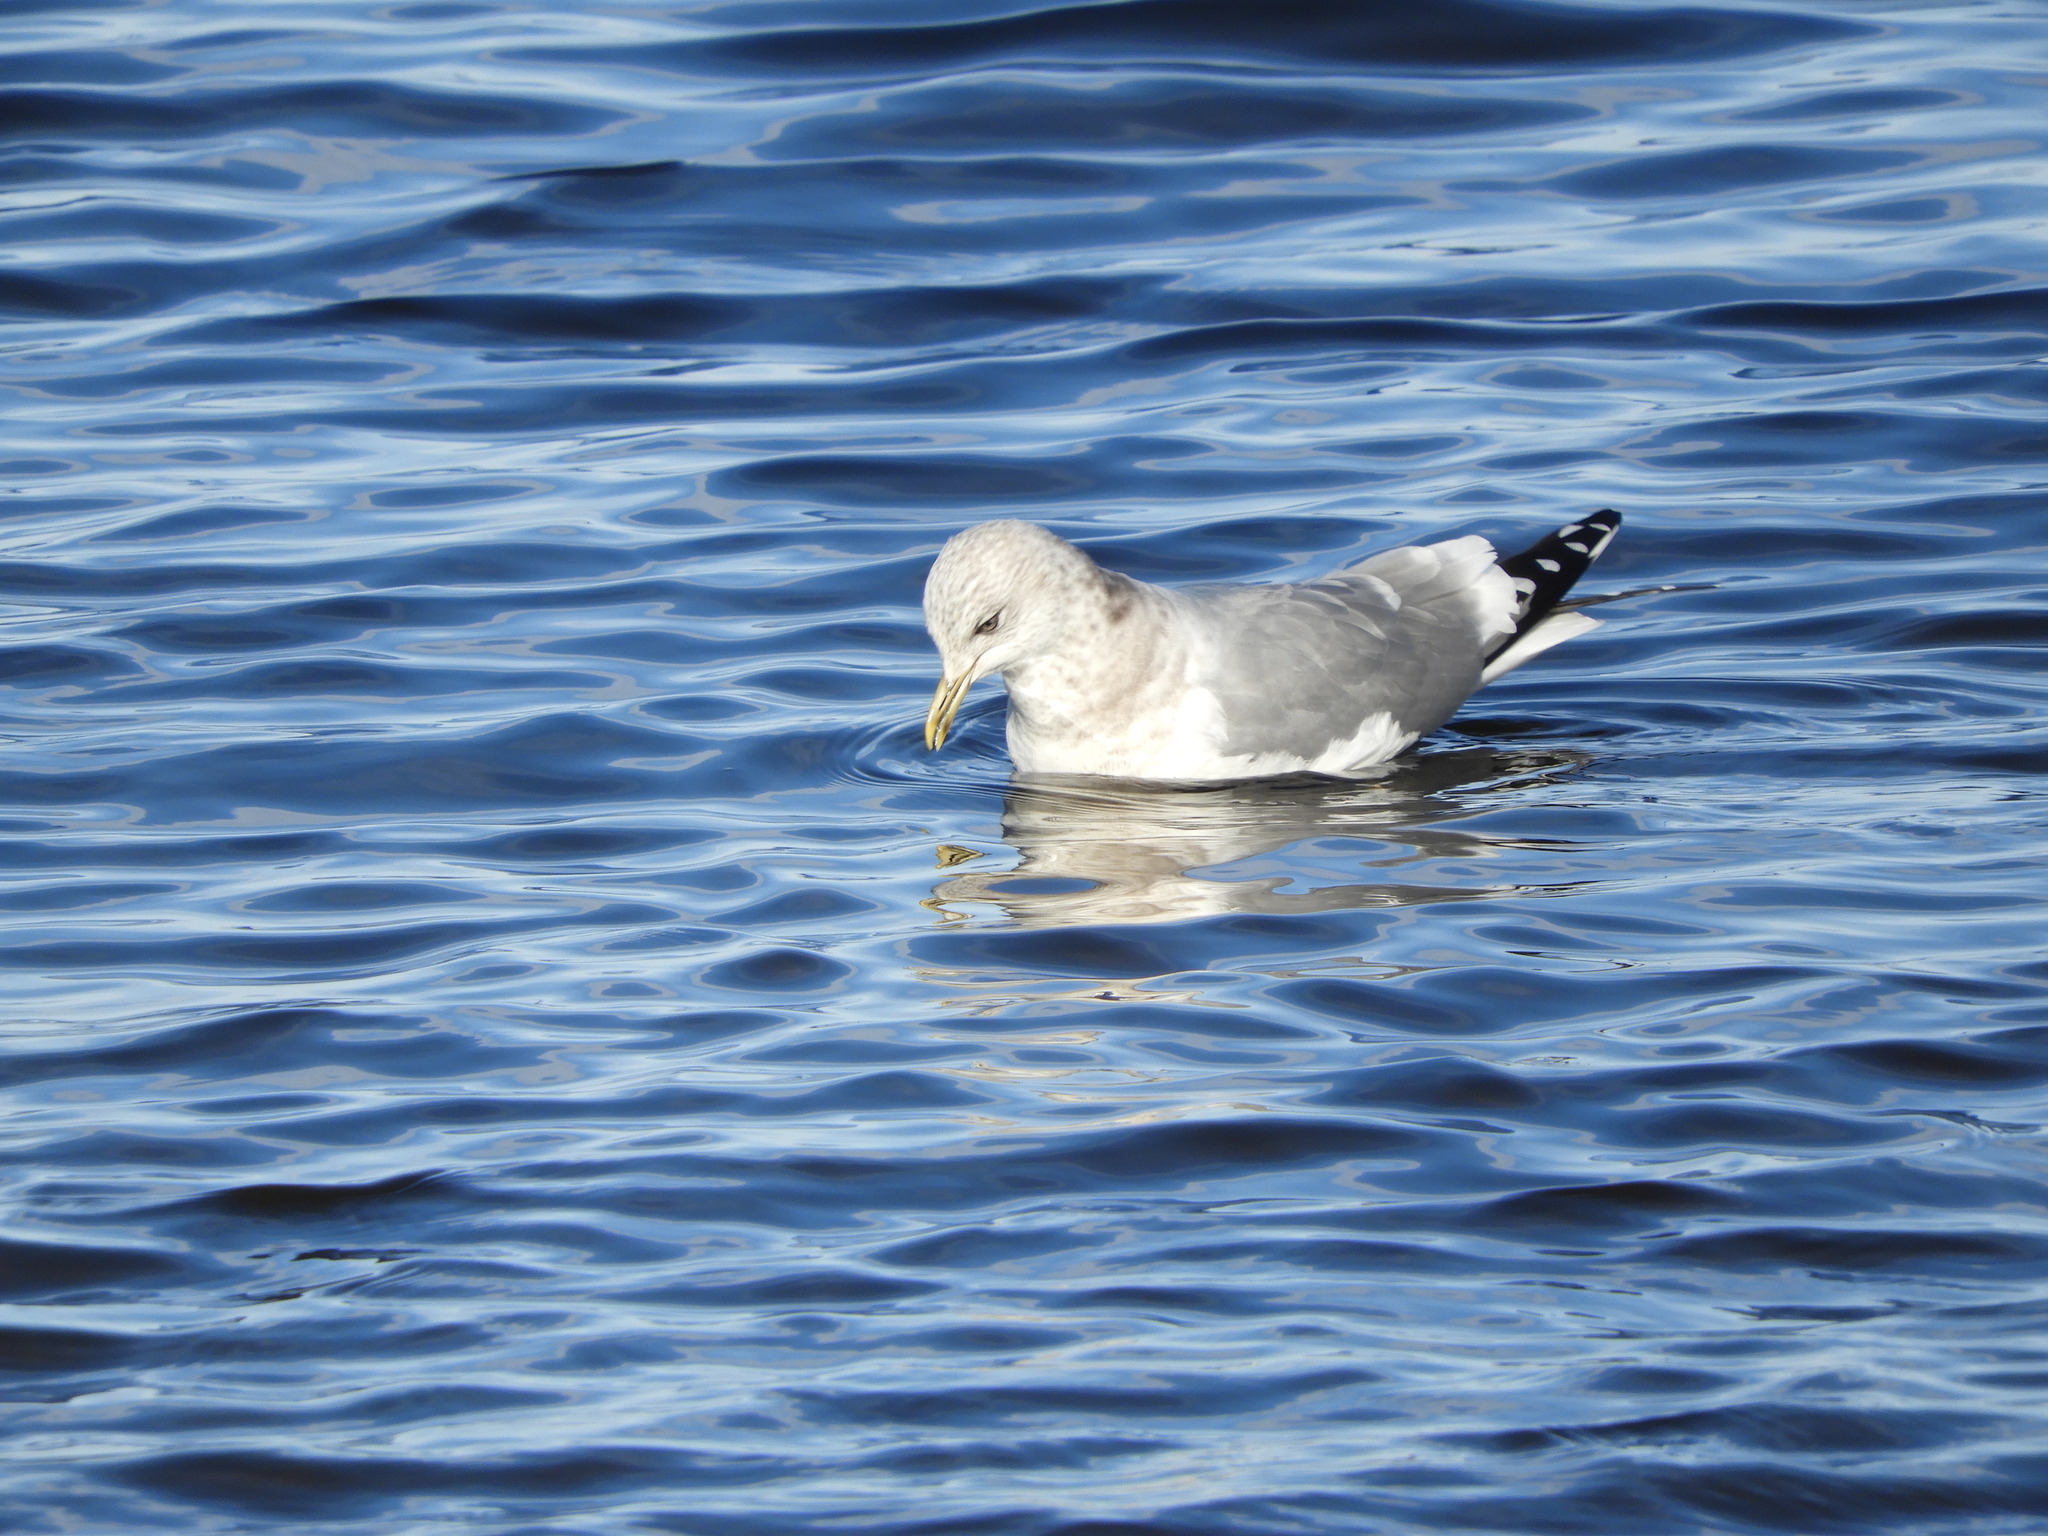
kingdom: Animalia
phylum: Chordata
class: Aves
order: Charadriiformes
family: Laridae
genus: Larus
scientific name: Larus brachyrhynchus
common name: Short-billed gull
